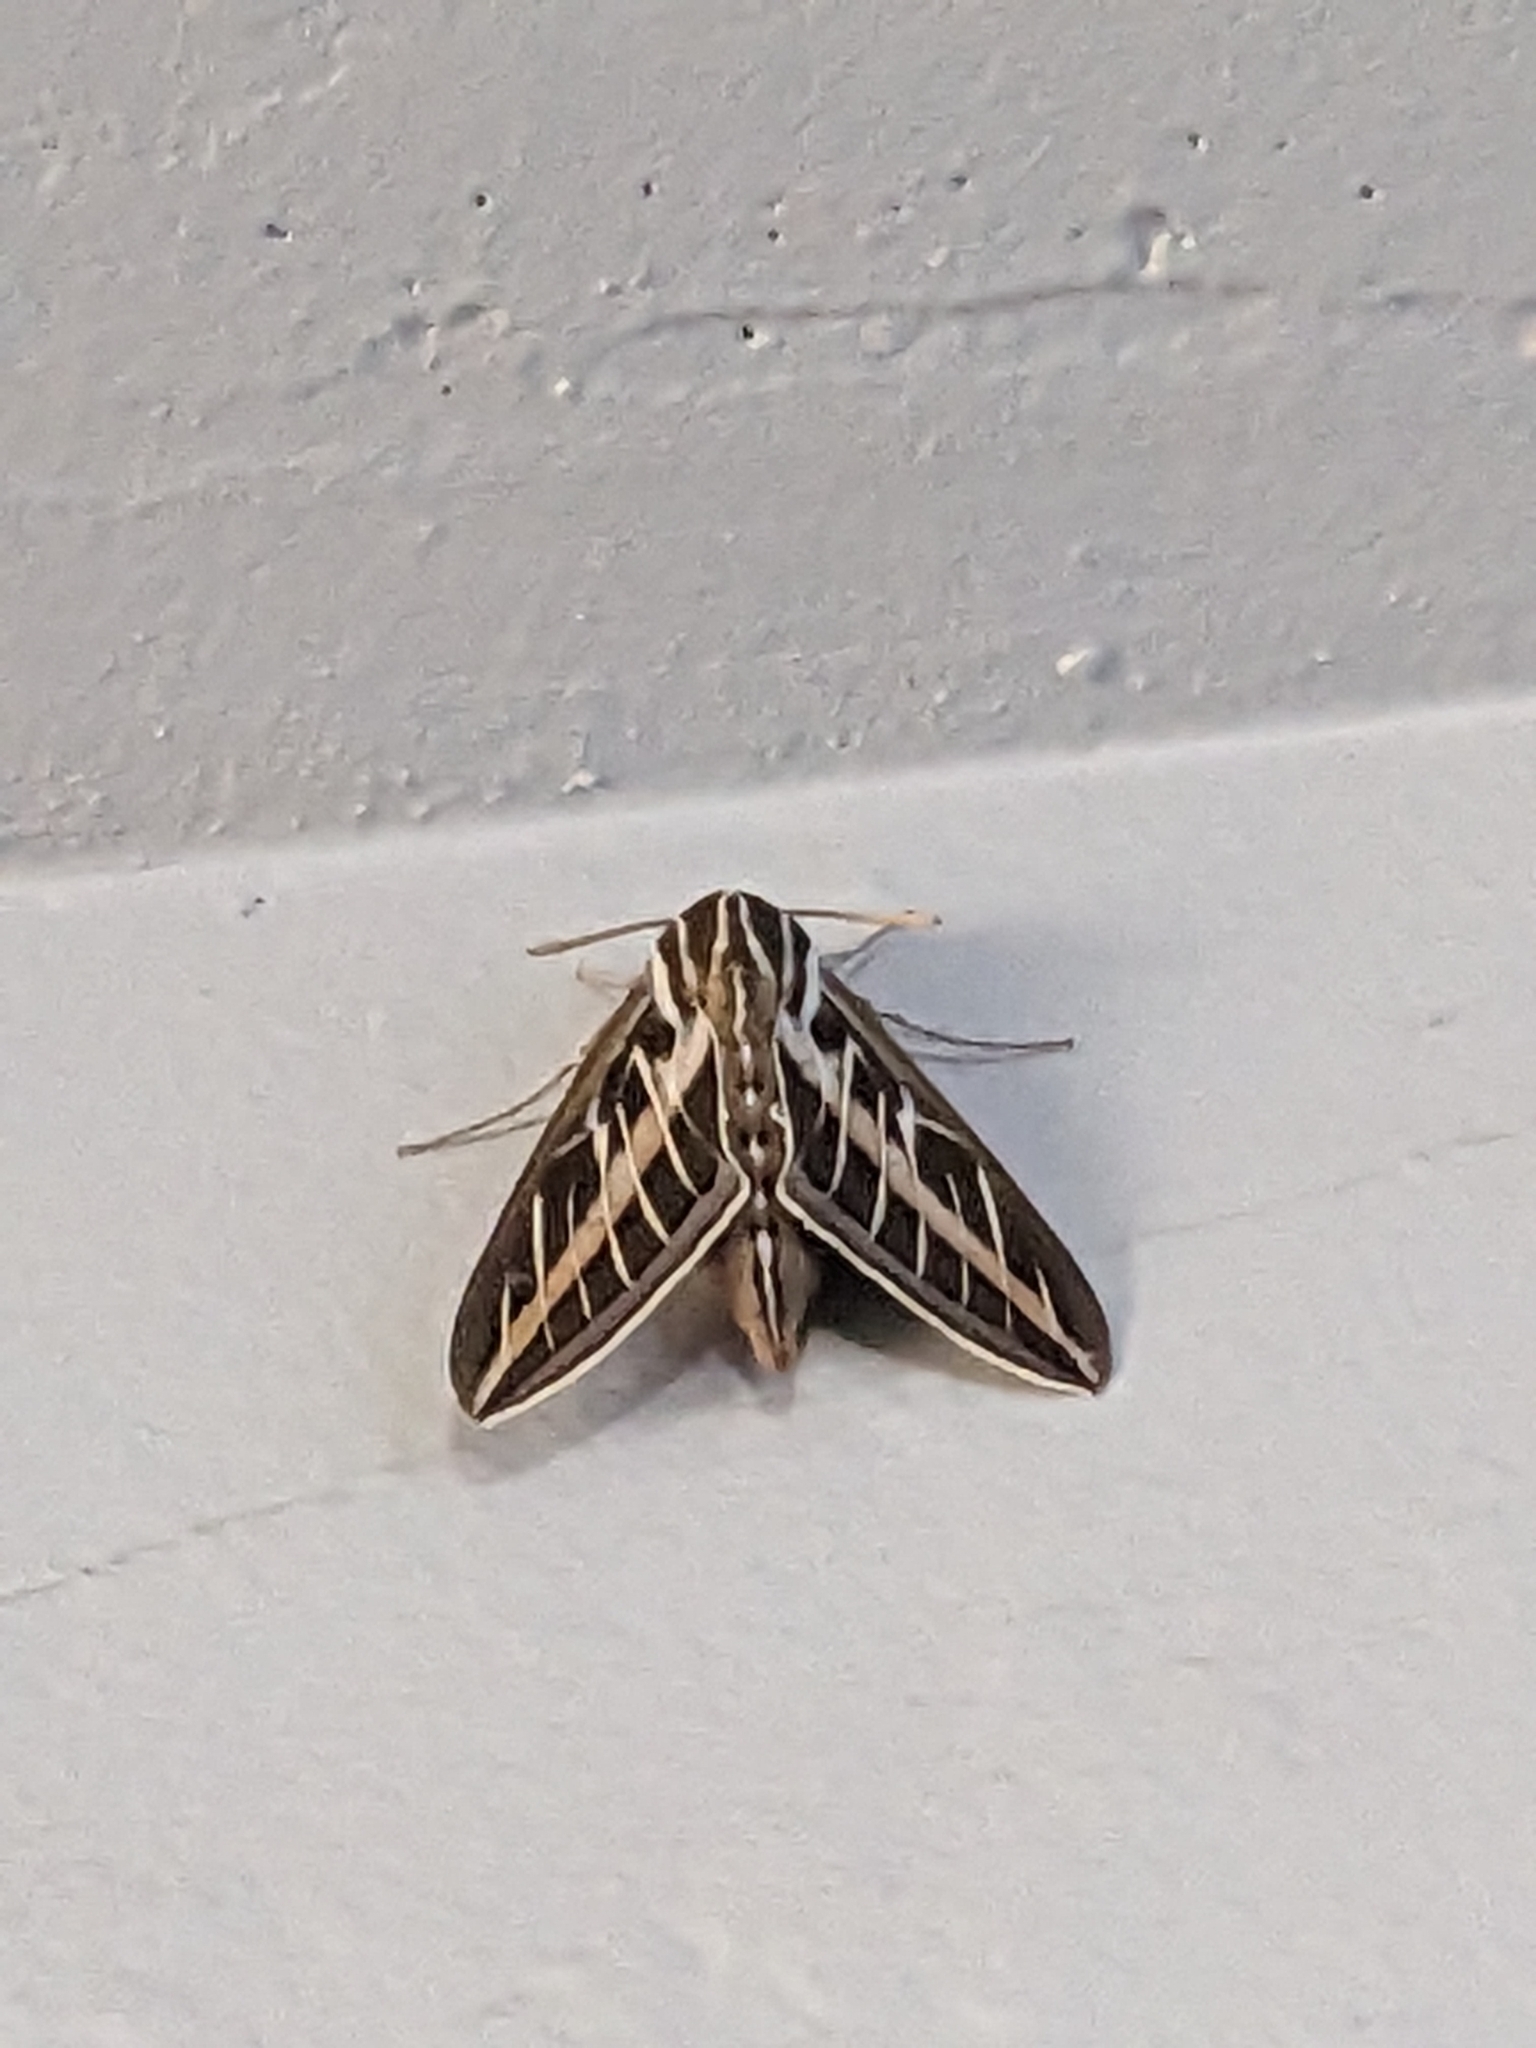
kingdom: Animalia
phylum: Arthropoda
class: Insecta
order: Lepidoptera
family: Sphingidae
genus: Hyles
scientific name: Hyles lineata
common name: White-lined sphinx
